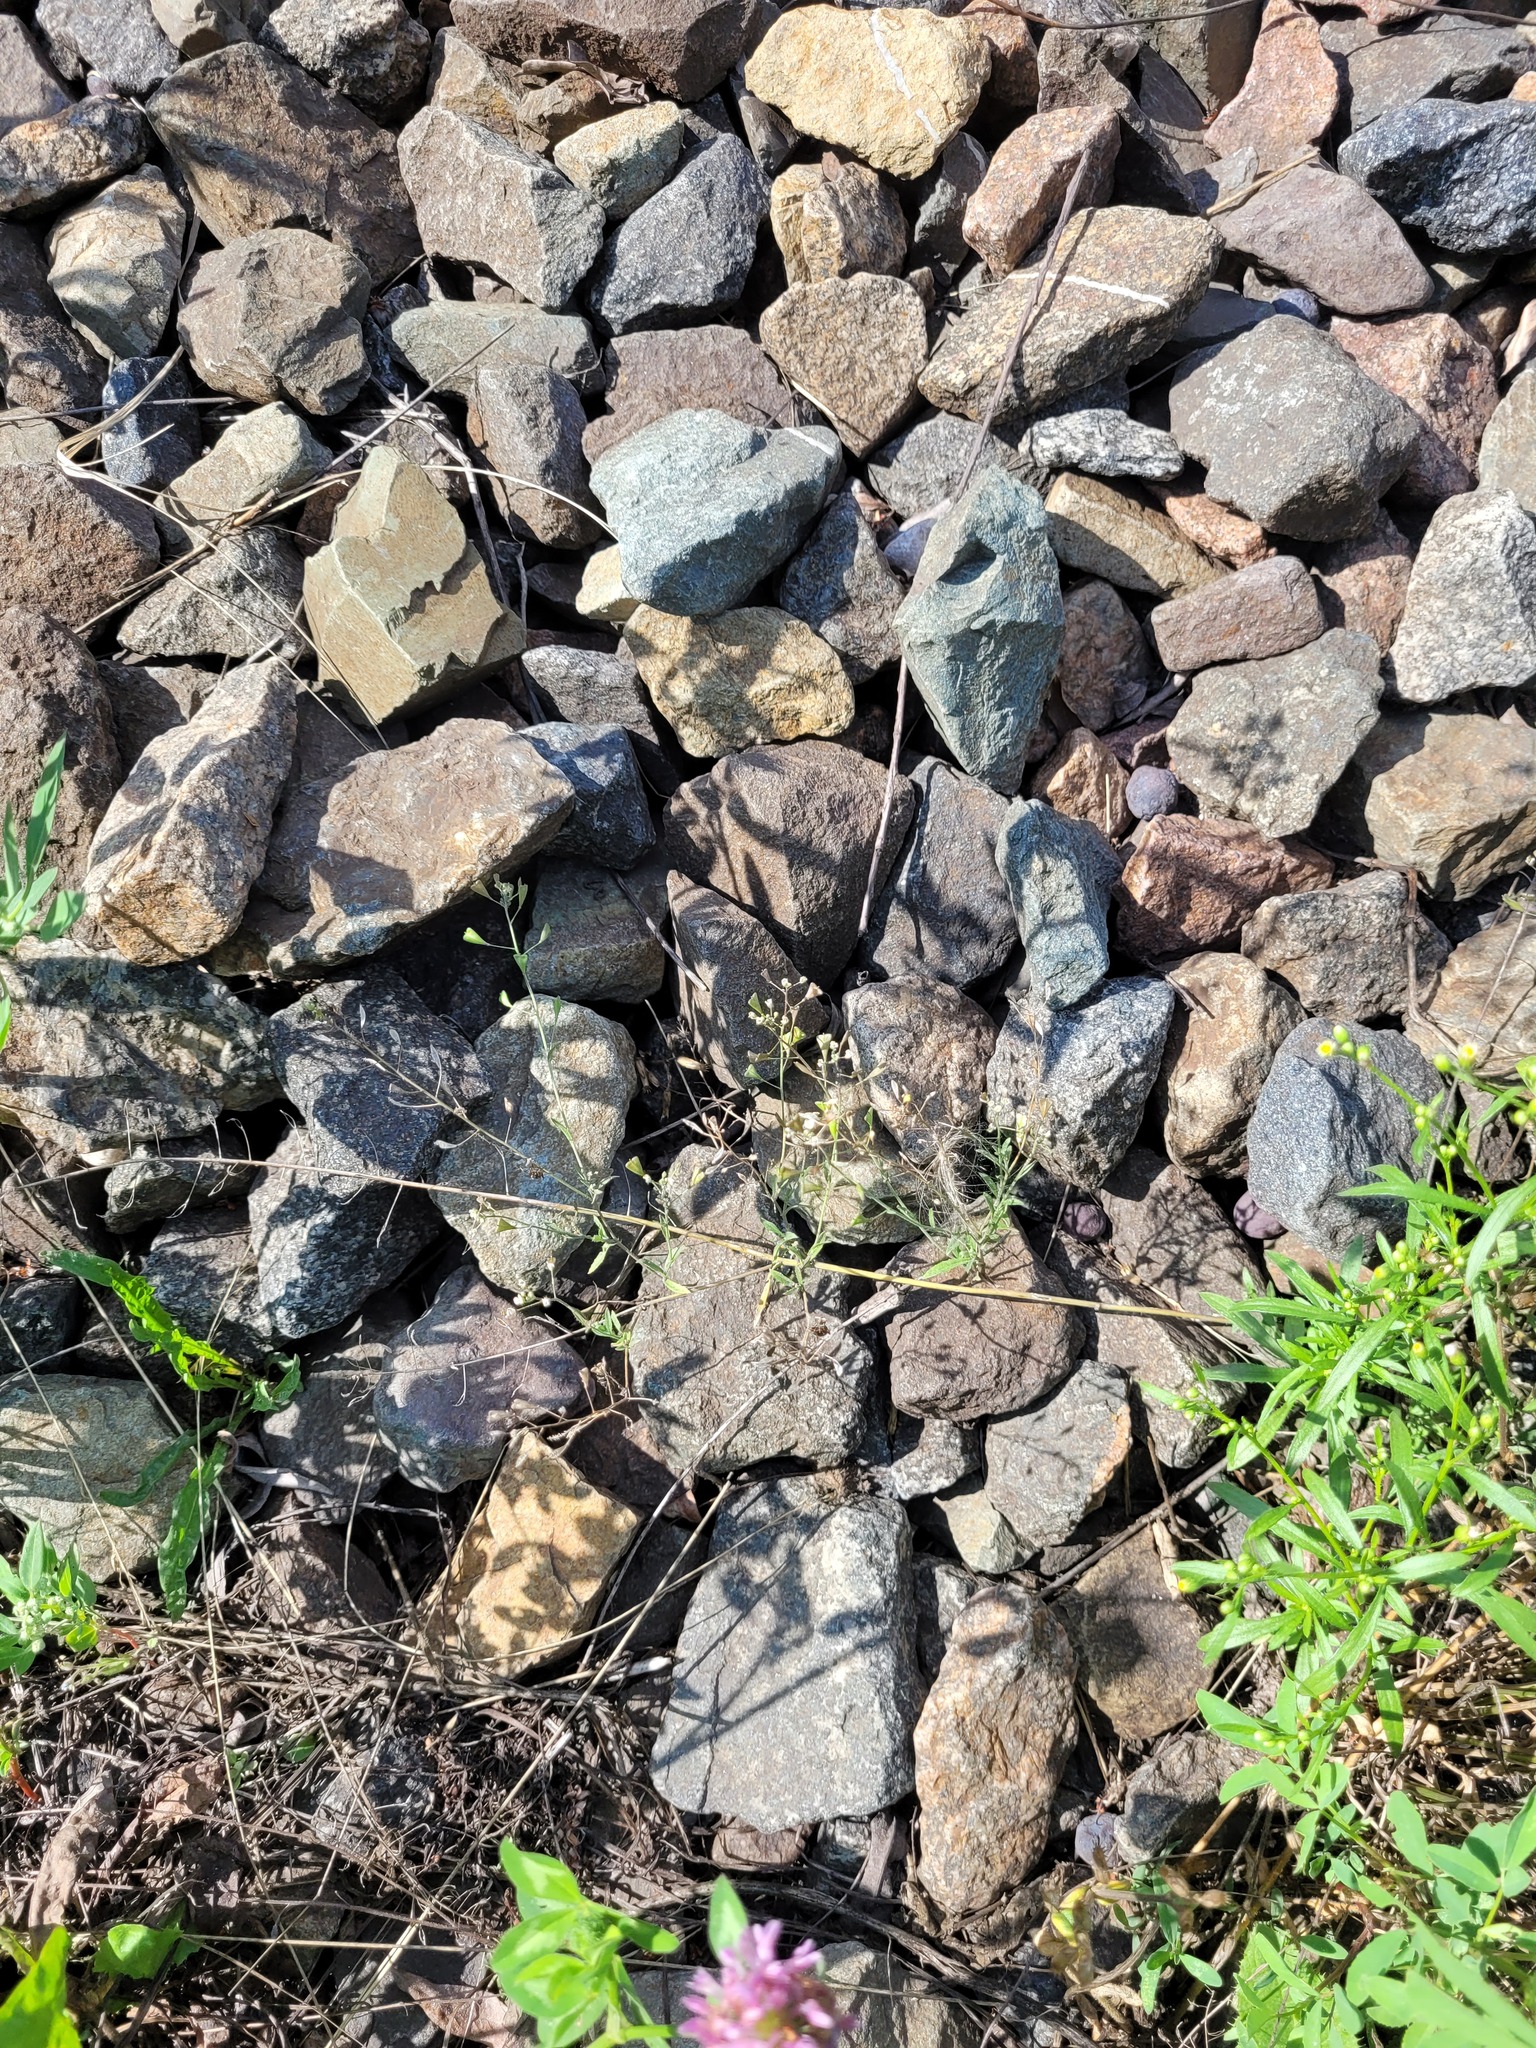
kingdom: Plantae
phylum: Tracheophyta
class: Magnoliopsida
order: Brassicales
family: Brassicaceae
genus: Capsella
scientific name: Capsella bursa-pastoris
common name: Shepherd's purse
